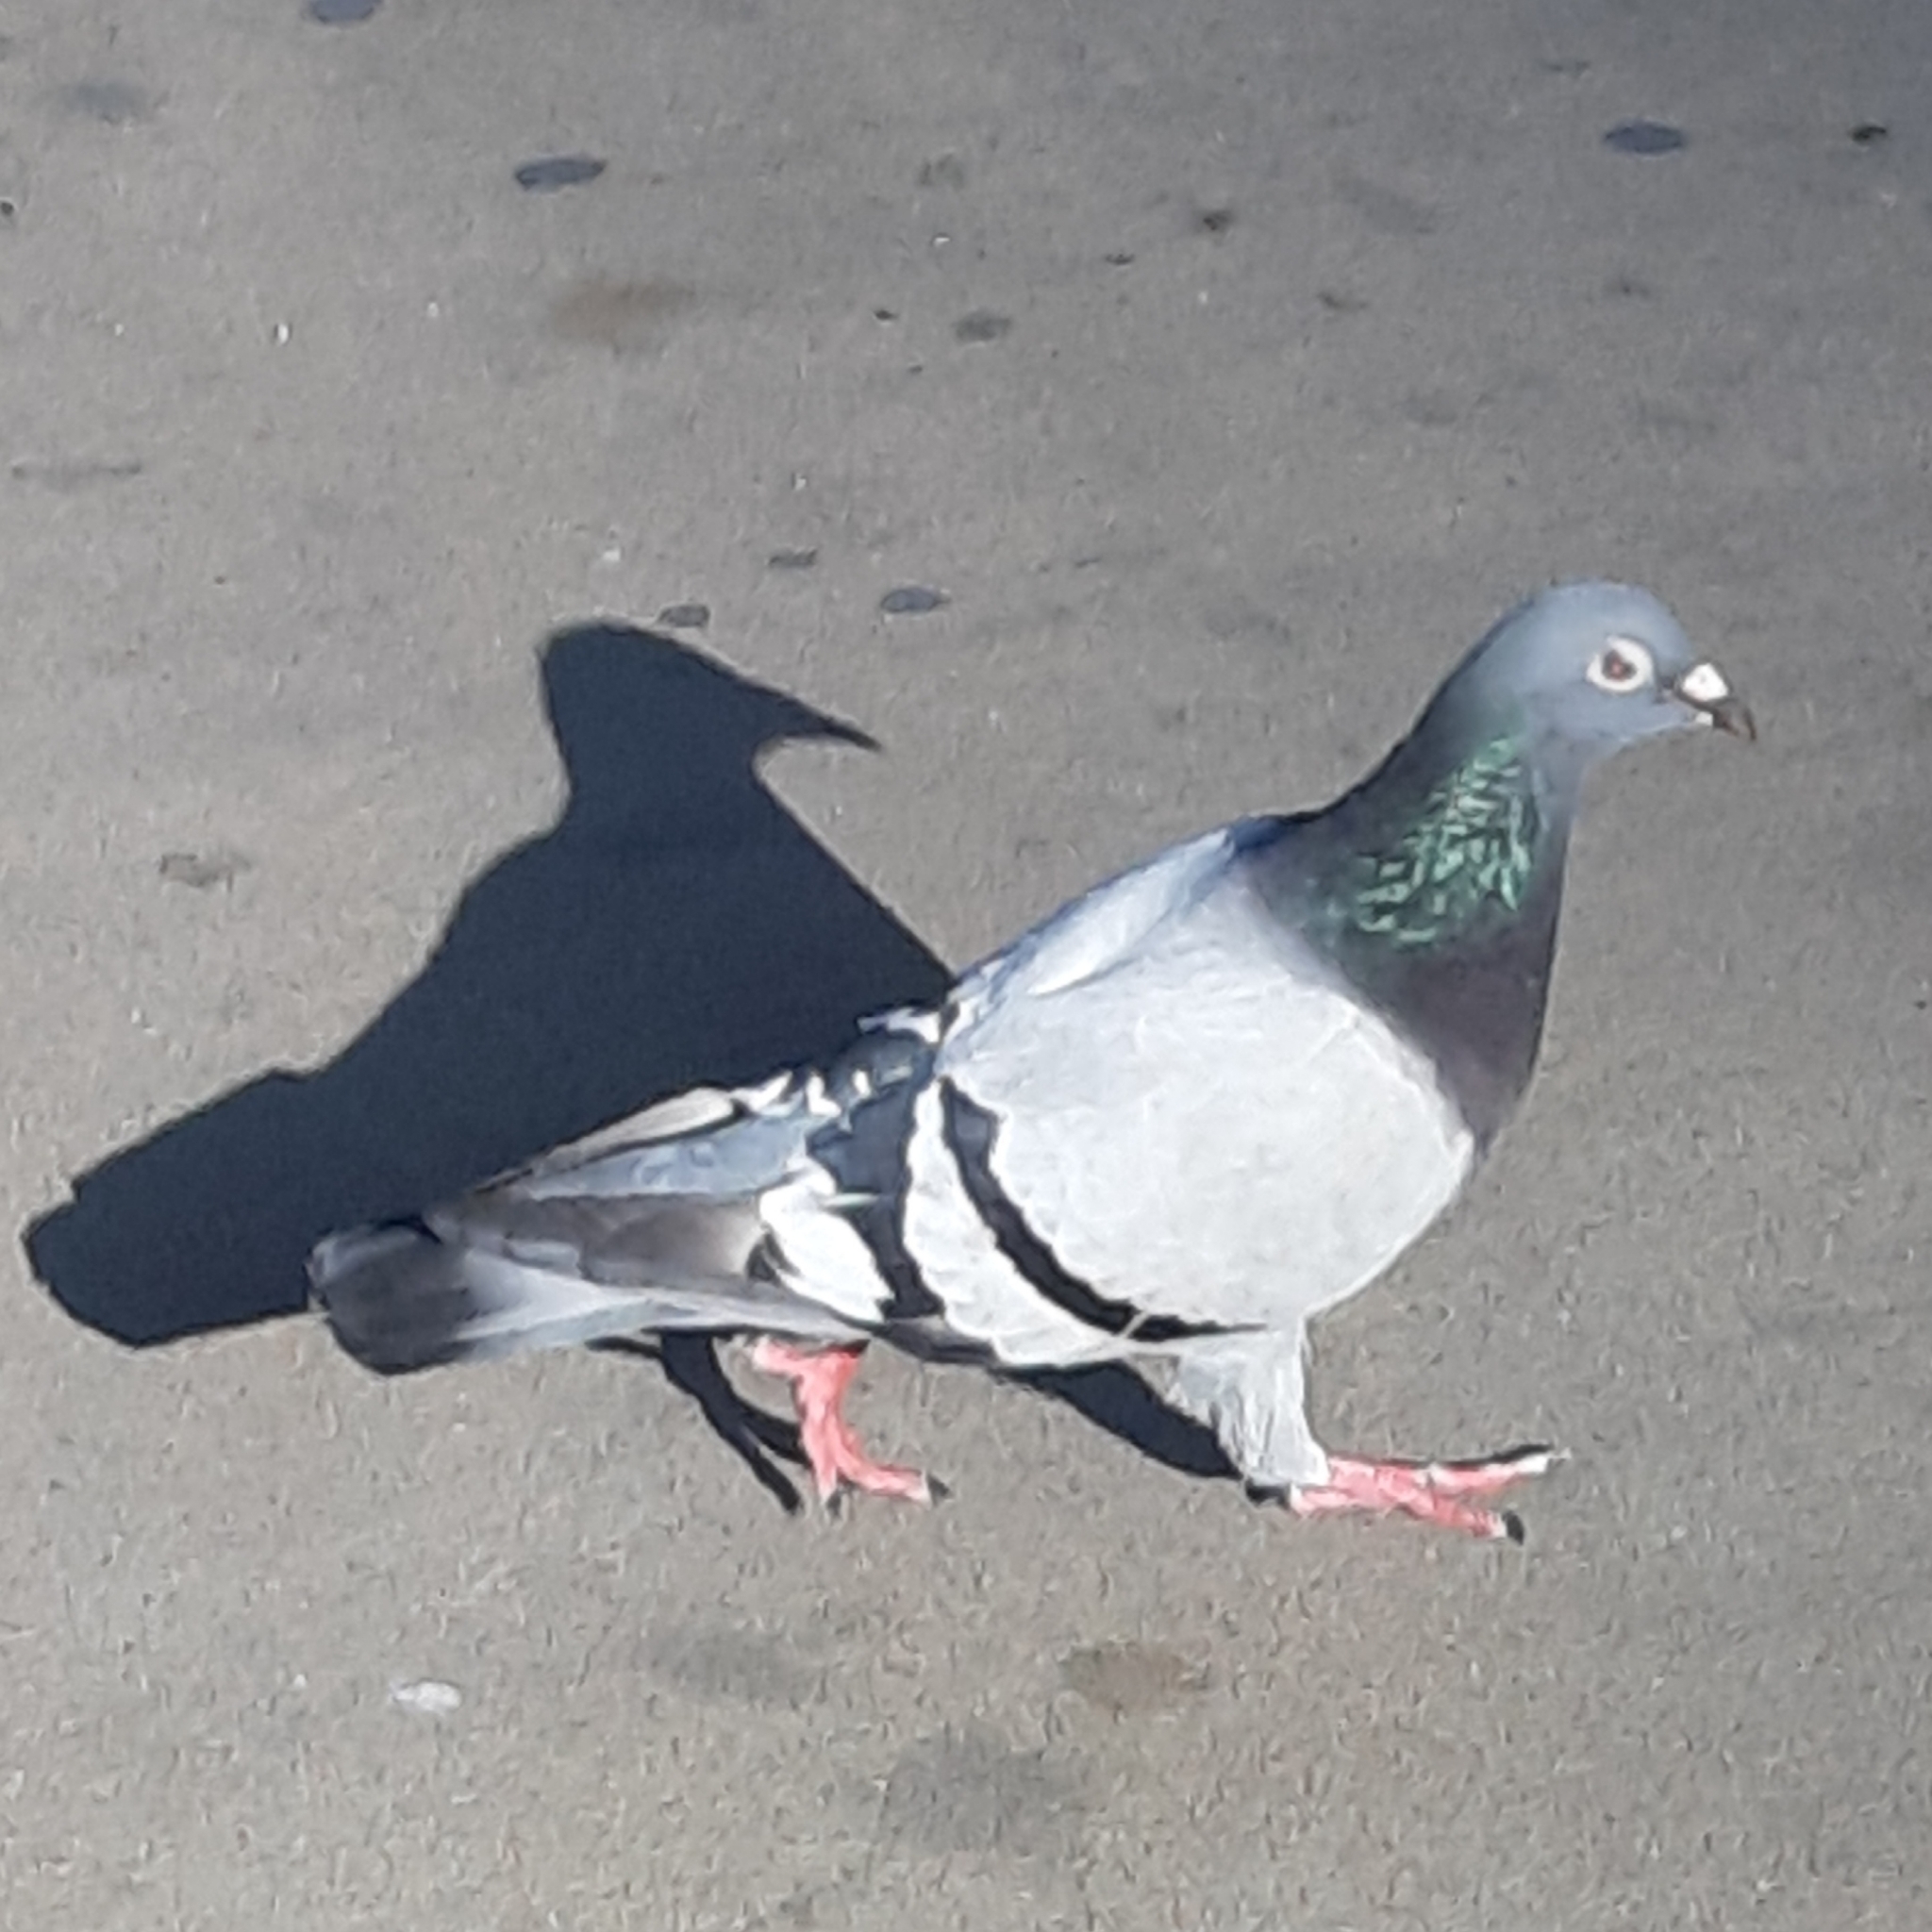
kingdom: Animalia
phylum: Chordata
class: Aves
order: Columbiformes
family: Columbidae
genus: Columba
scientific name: Columba livia
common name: Rock pigeon
